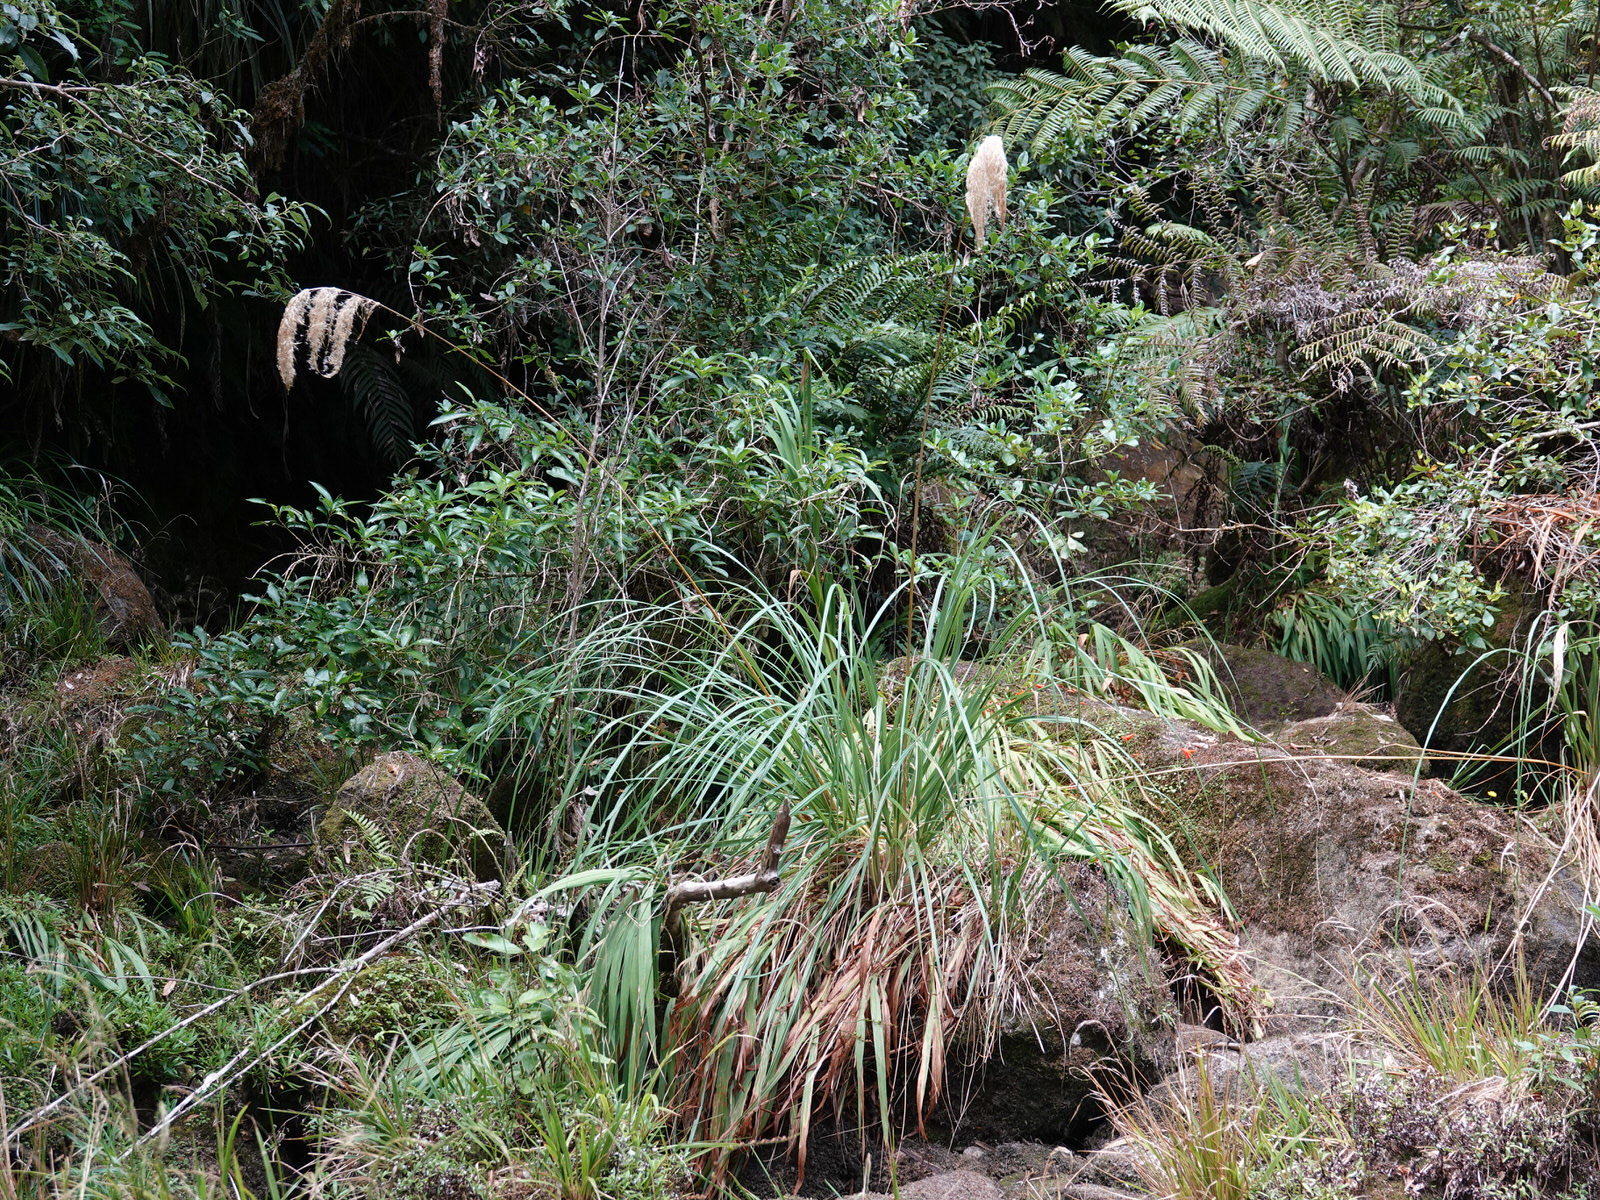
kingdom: Plantae
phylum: Tracheophyta
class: Liliopsida
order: Poales
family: Poaceae
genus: Austroderia
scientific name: Austroderia fulvida
